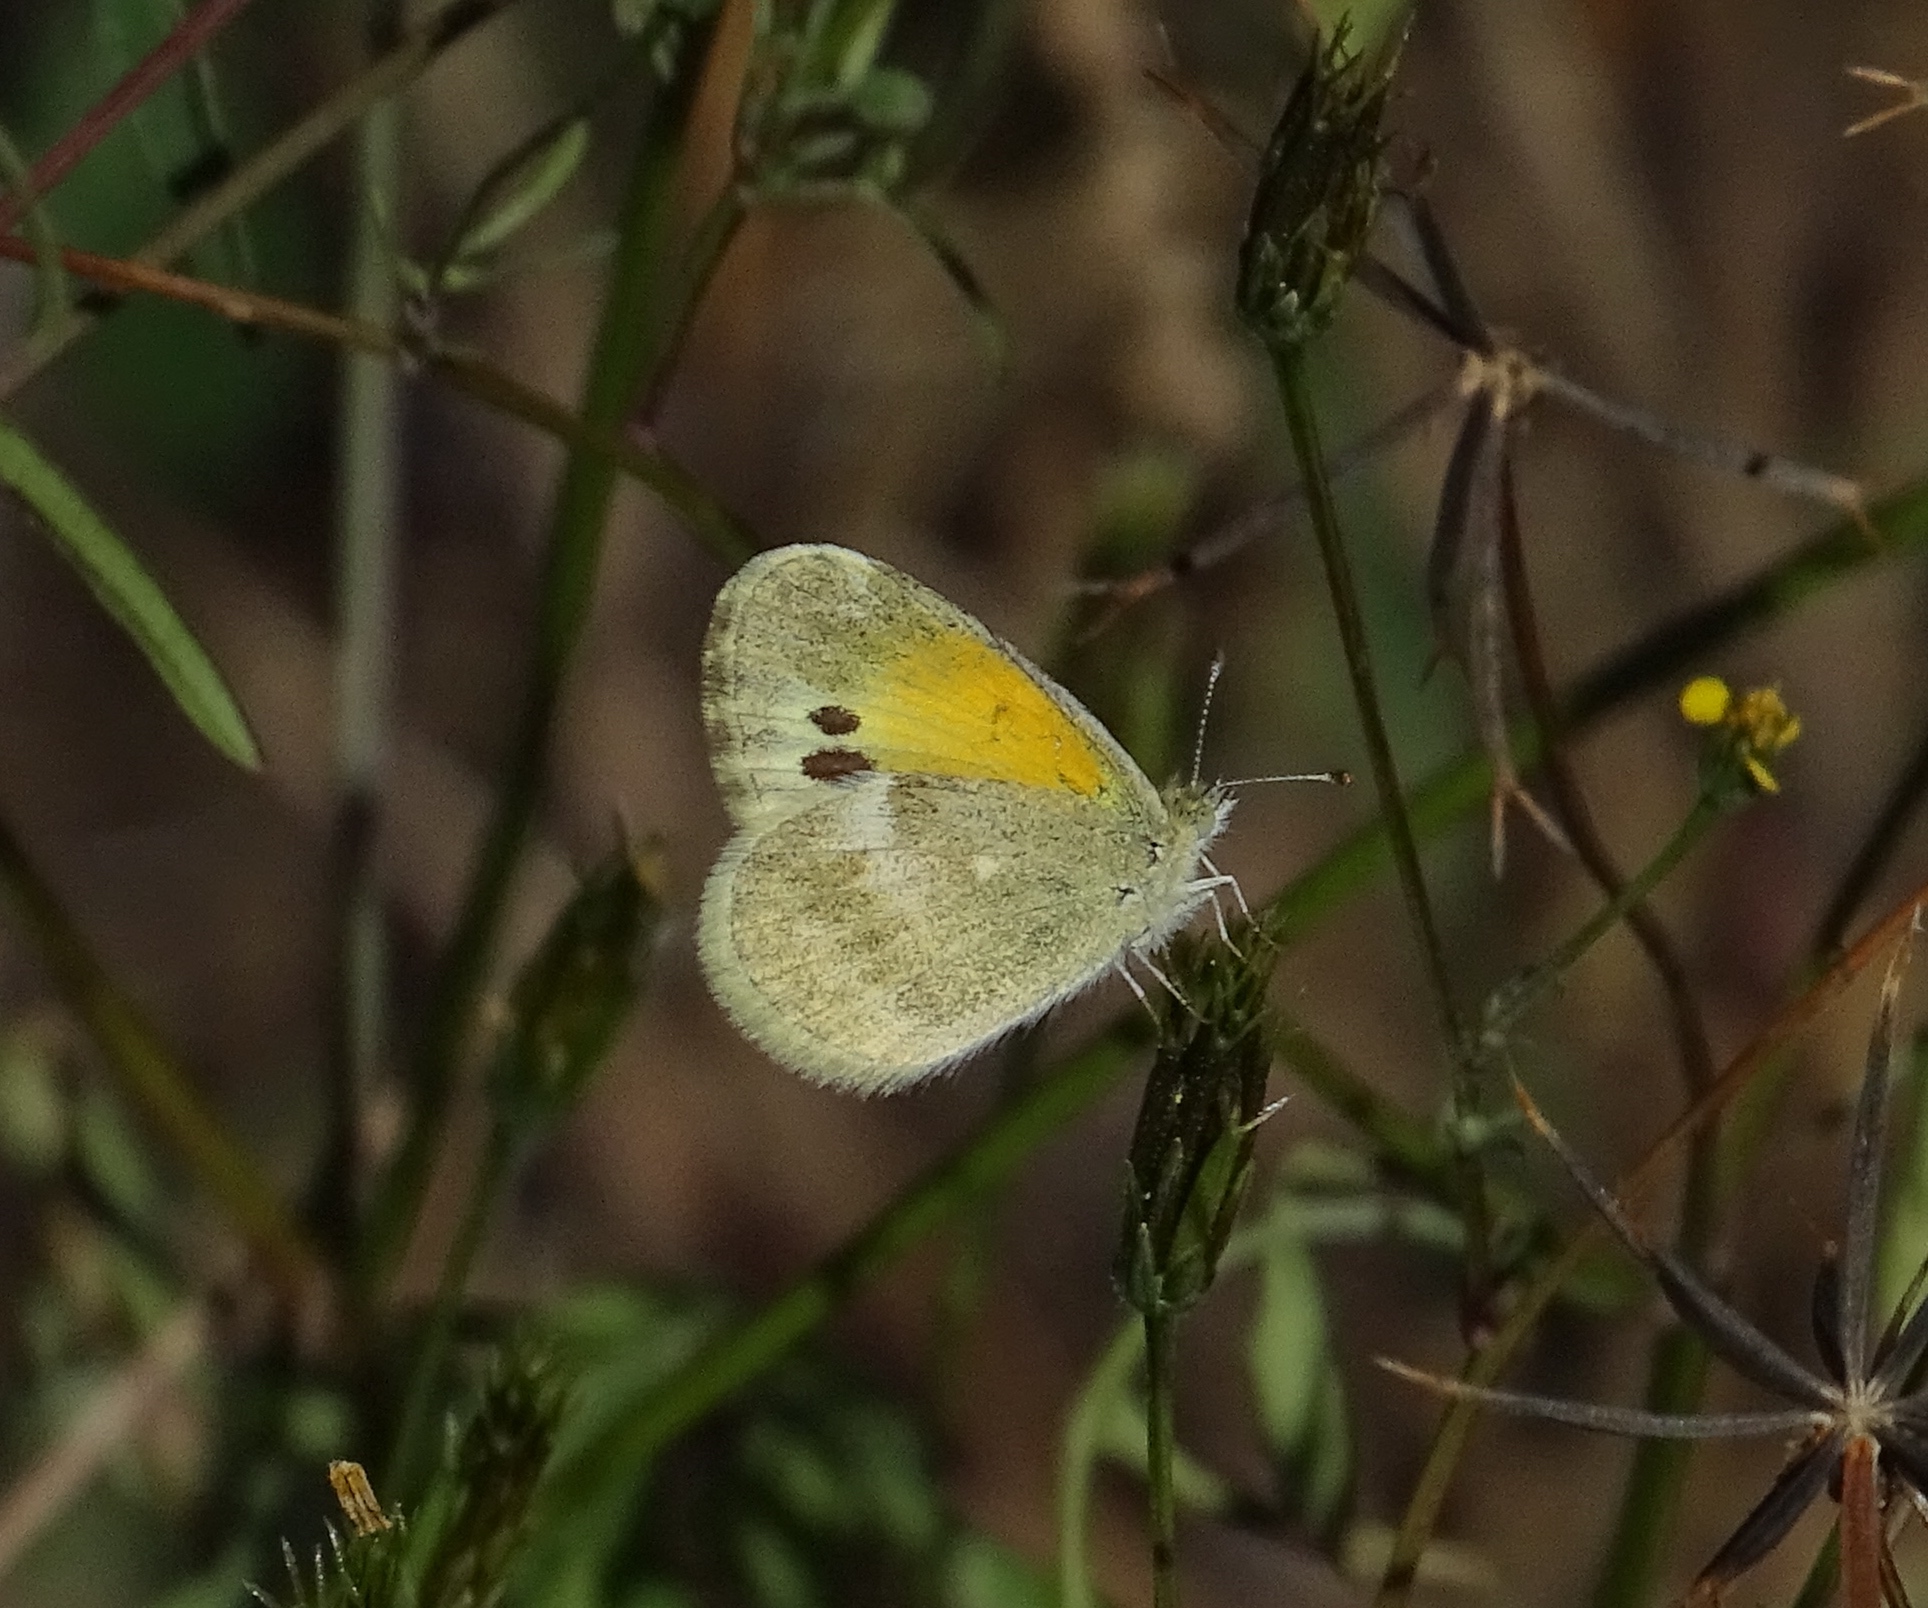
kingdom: Animalia
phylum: Arthropoda
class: Insecta
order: Lepidoptera
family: Pieridae
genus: Nathalis
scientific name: Nathalis iole
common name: Dainty sulphur
